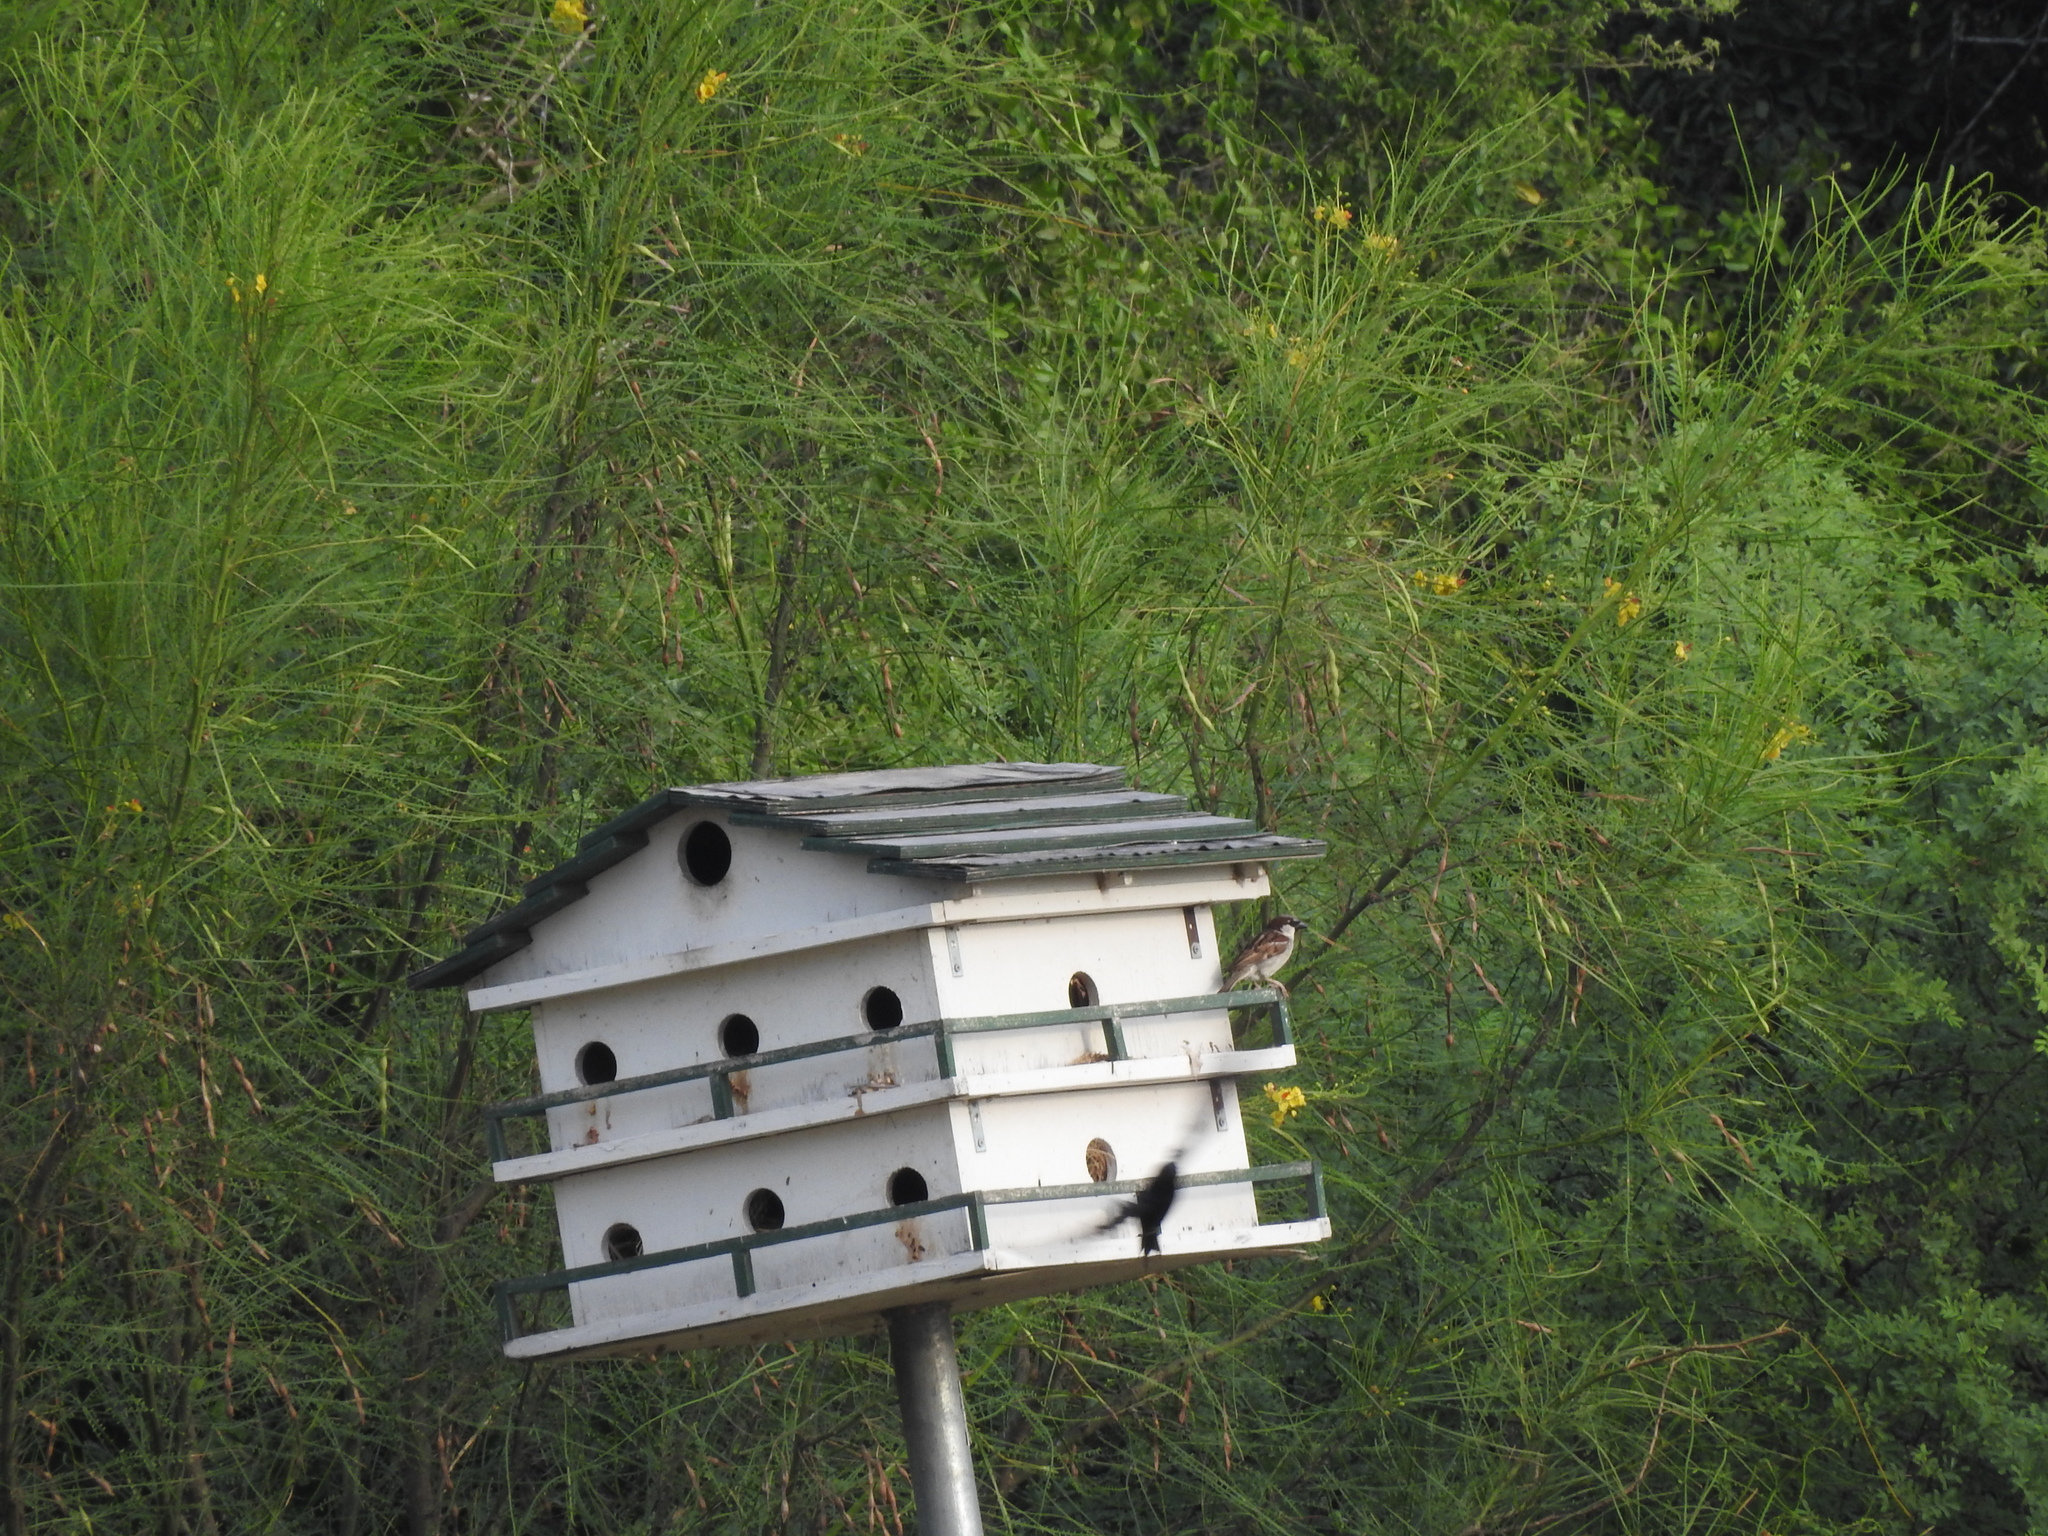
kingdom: Animalia
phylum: Chordata
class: Aves
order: Passeriformes
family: Passeridae
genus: Passer
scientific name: Passer domesticus
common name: House sparrow
